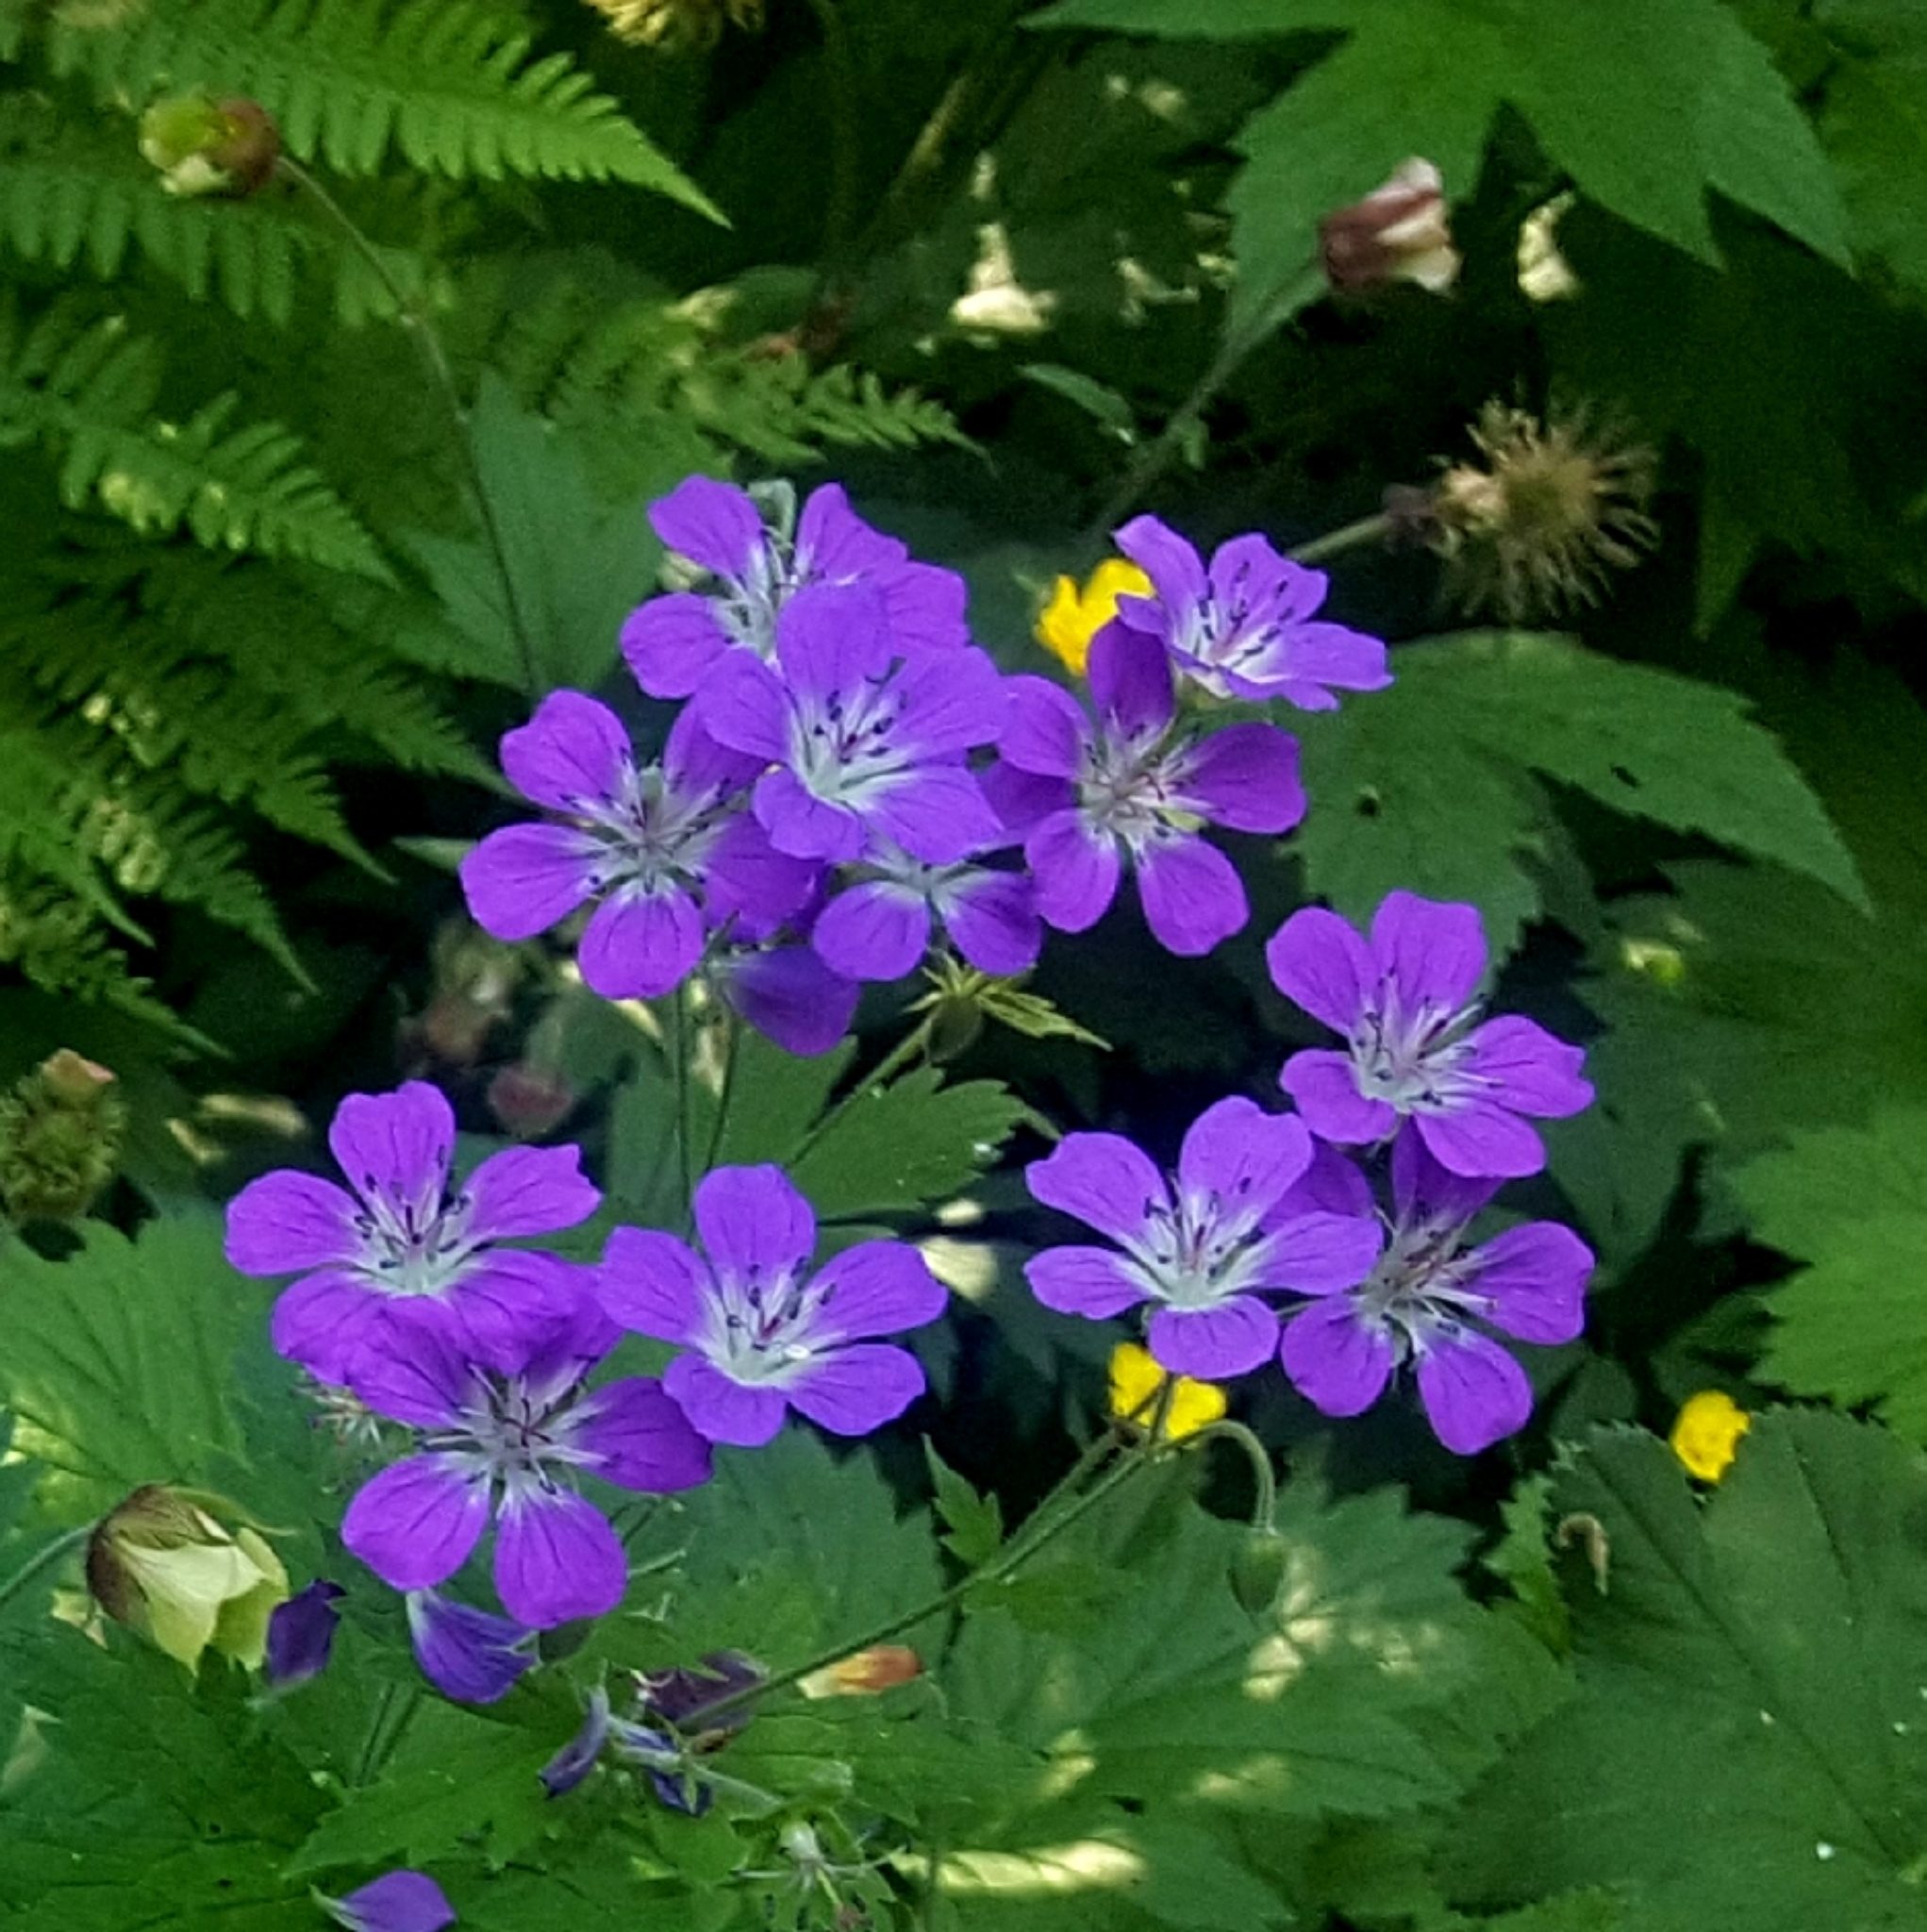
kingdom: Plantae
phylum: Tracheophyta
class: Magnoliopsida
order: Geraniales
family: Geraniaceae
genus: Geranium
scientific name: Geranium sylvaticum
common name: Wood crane's-bill
